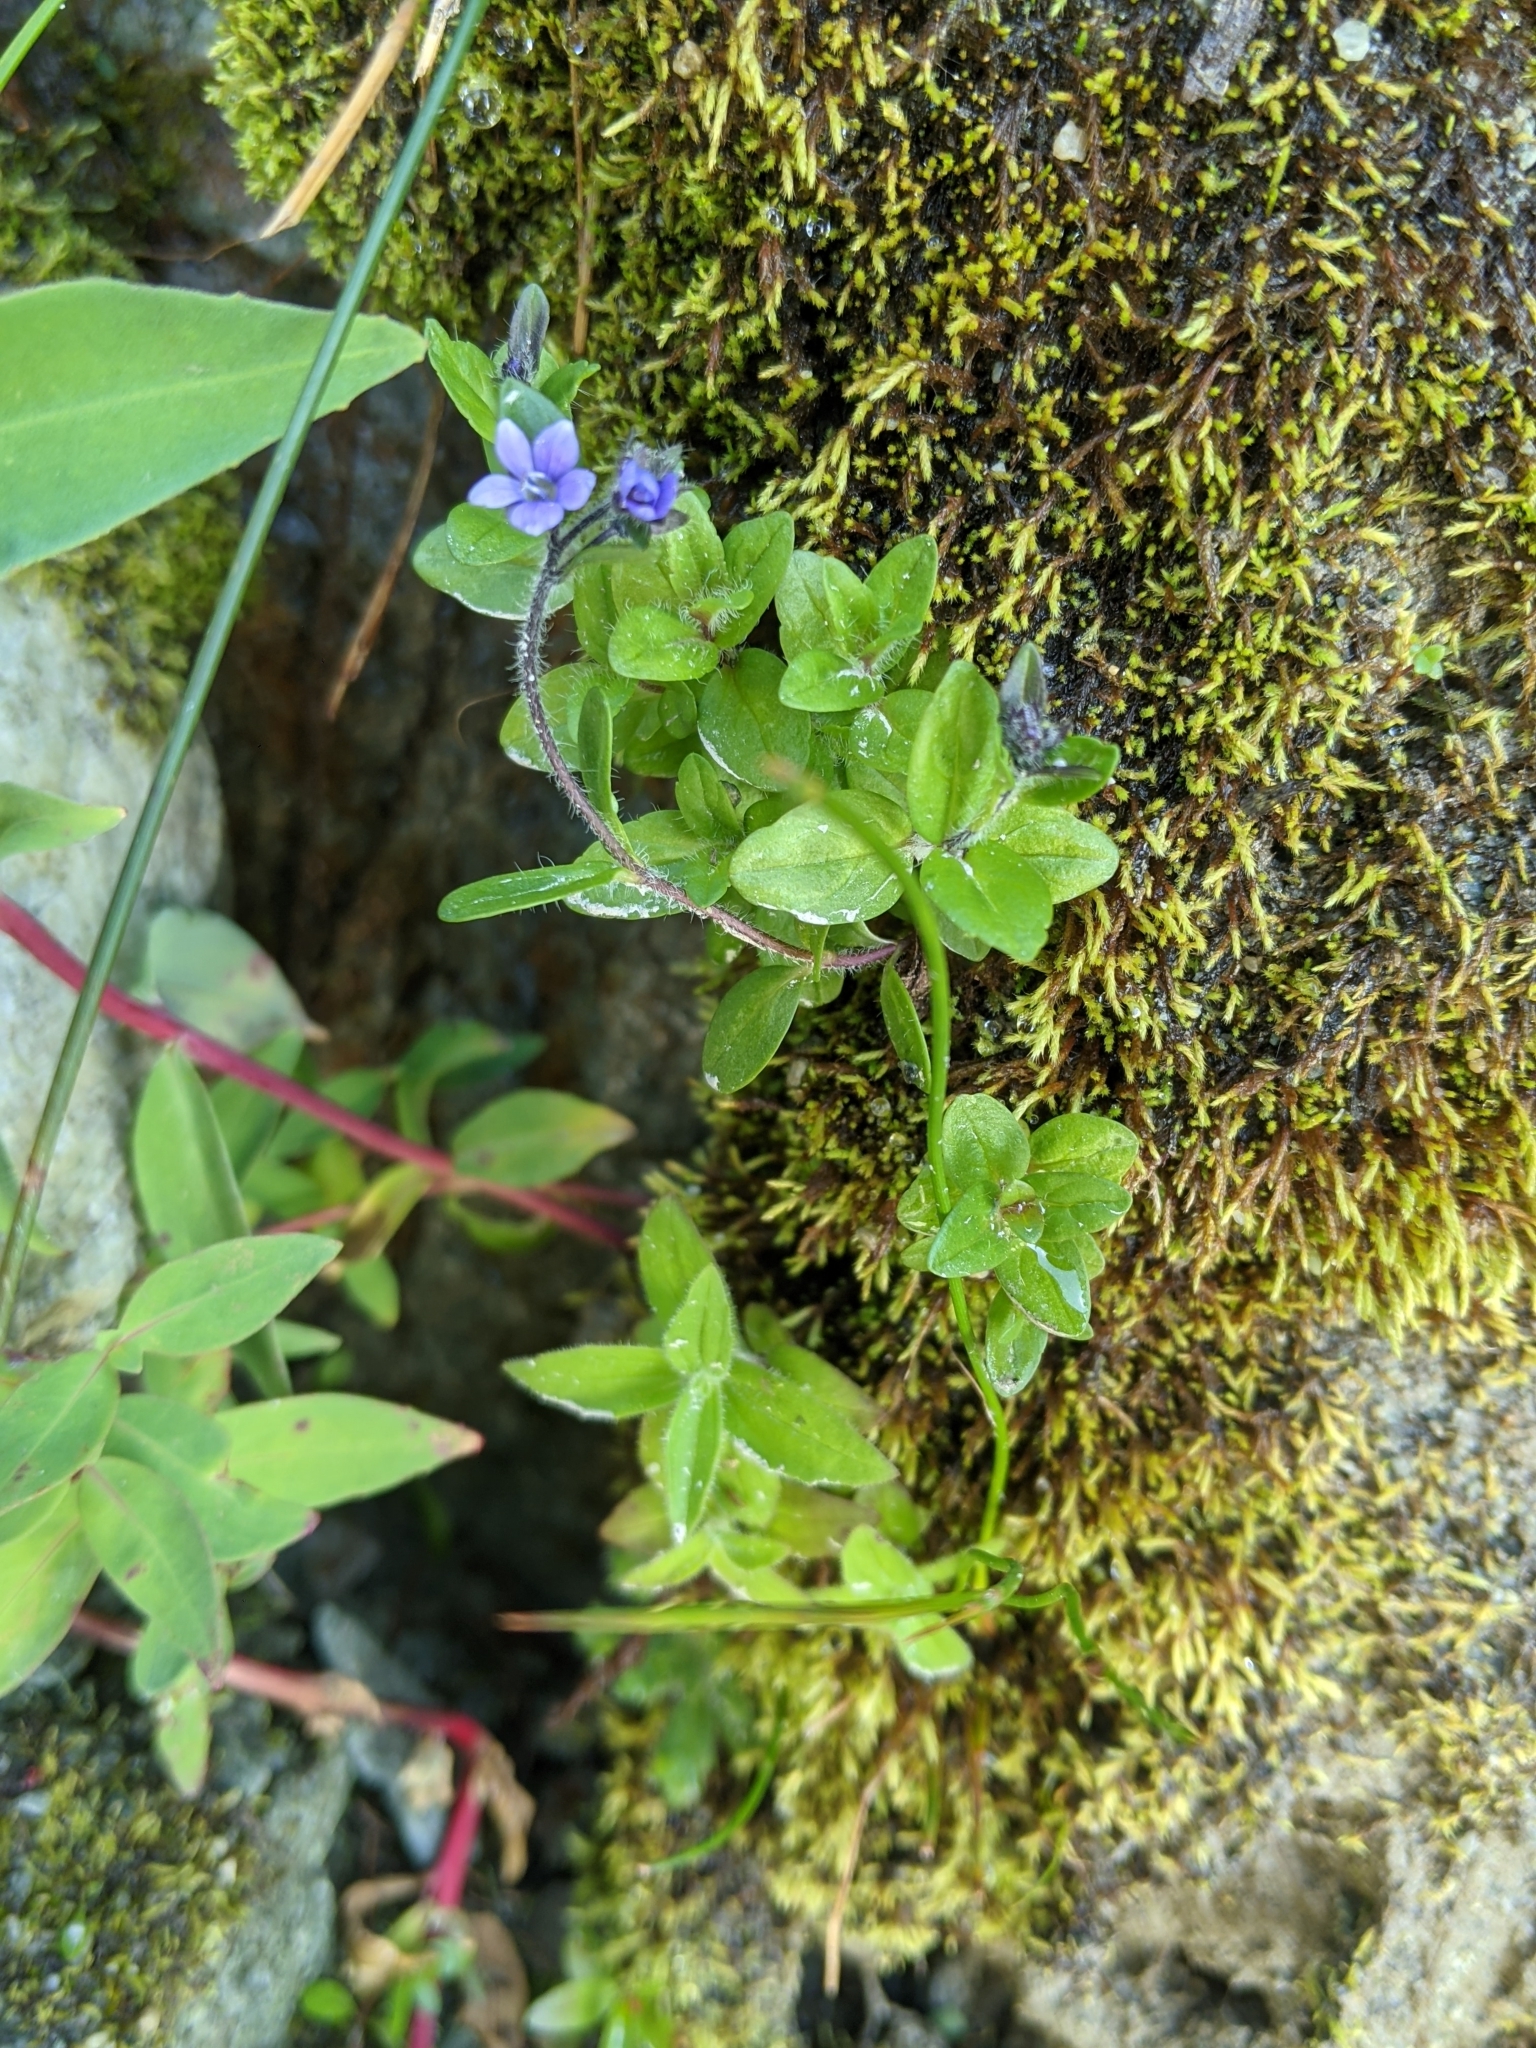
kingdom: Plantae
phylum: Tracheophyta
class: Magnoliopsida
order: Lamiales
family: Plantaginaceae
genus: Veronica
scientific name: Veronica wormskjoldii
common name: American alpine speedwell
